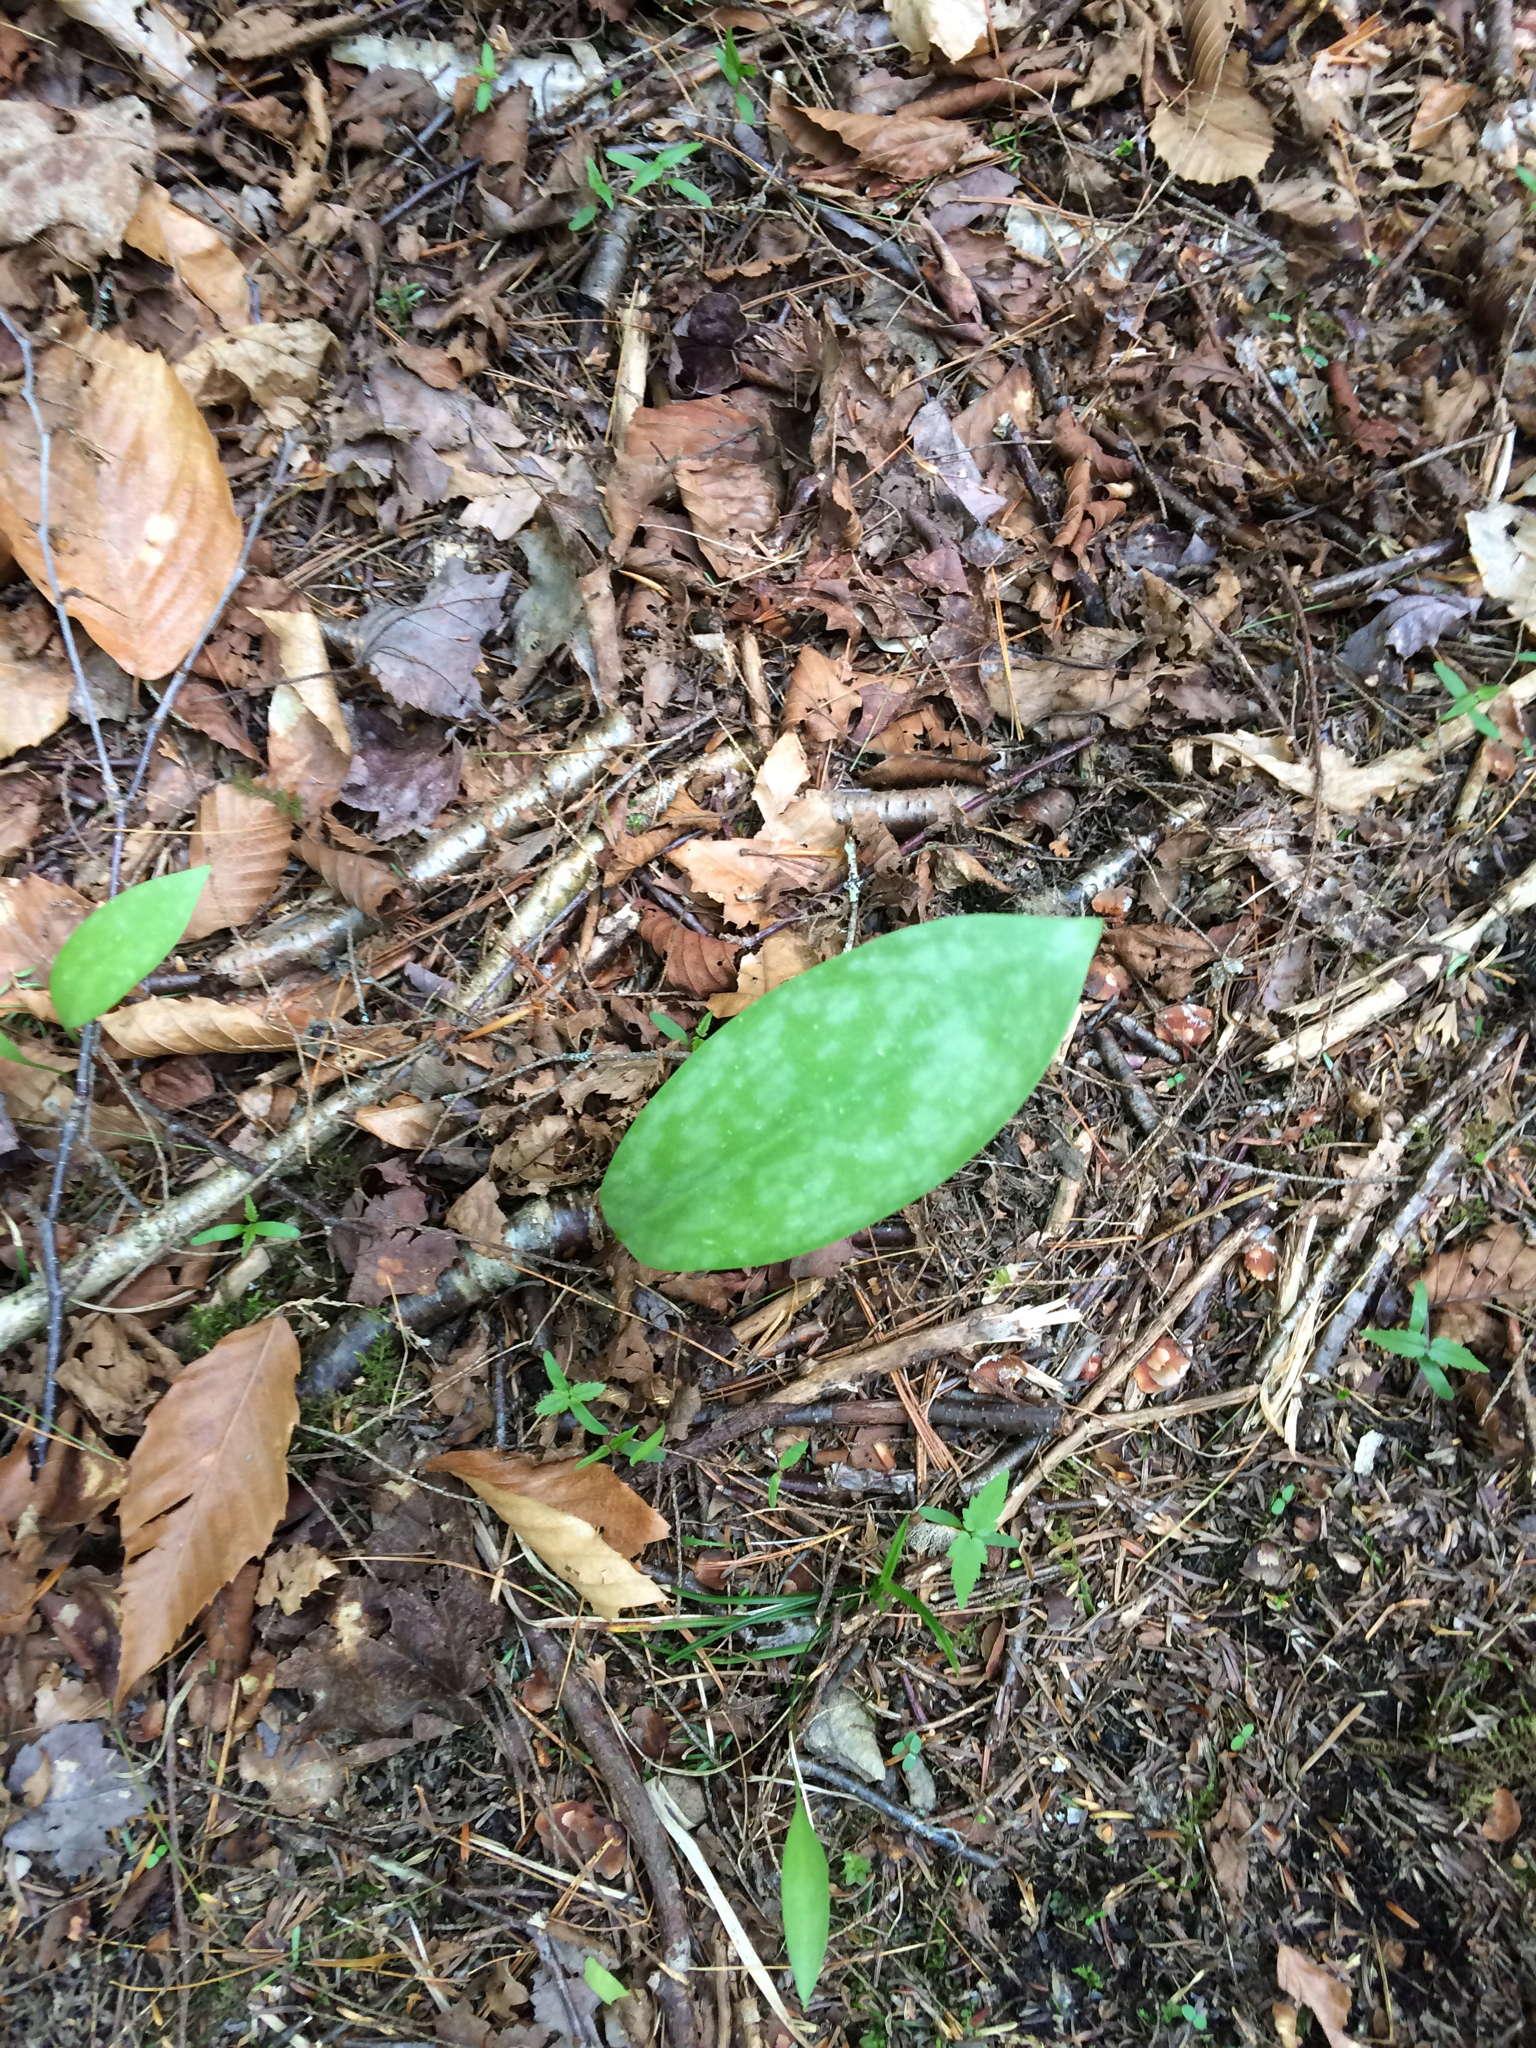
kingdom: Plantae
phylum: Tracheophyta
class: Liliopsida
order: Liliales
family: Liliaceae
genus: Erythronium
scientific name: Erythronium americanum
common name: Yellow adder's-tongue
